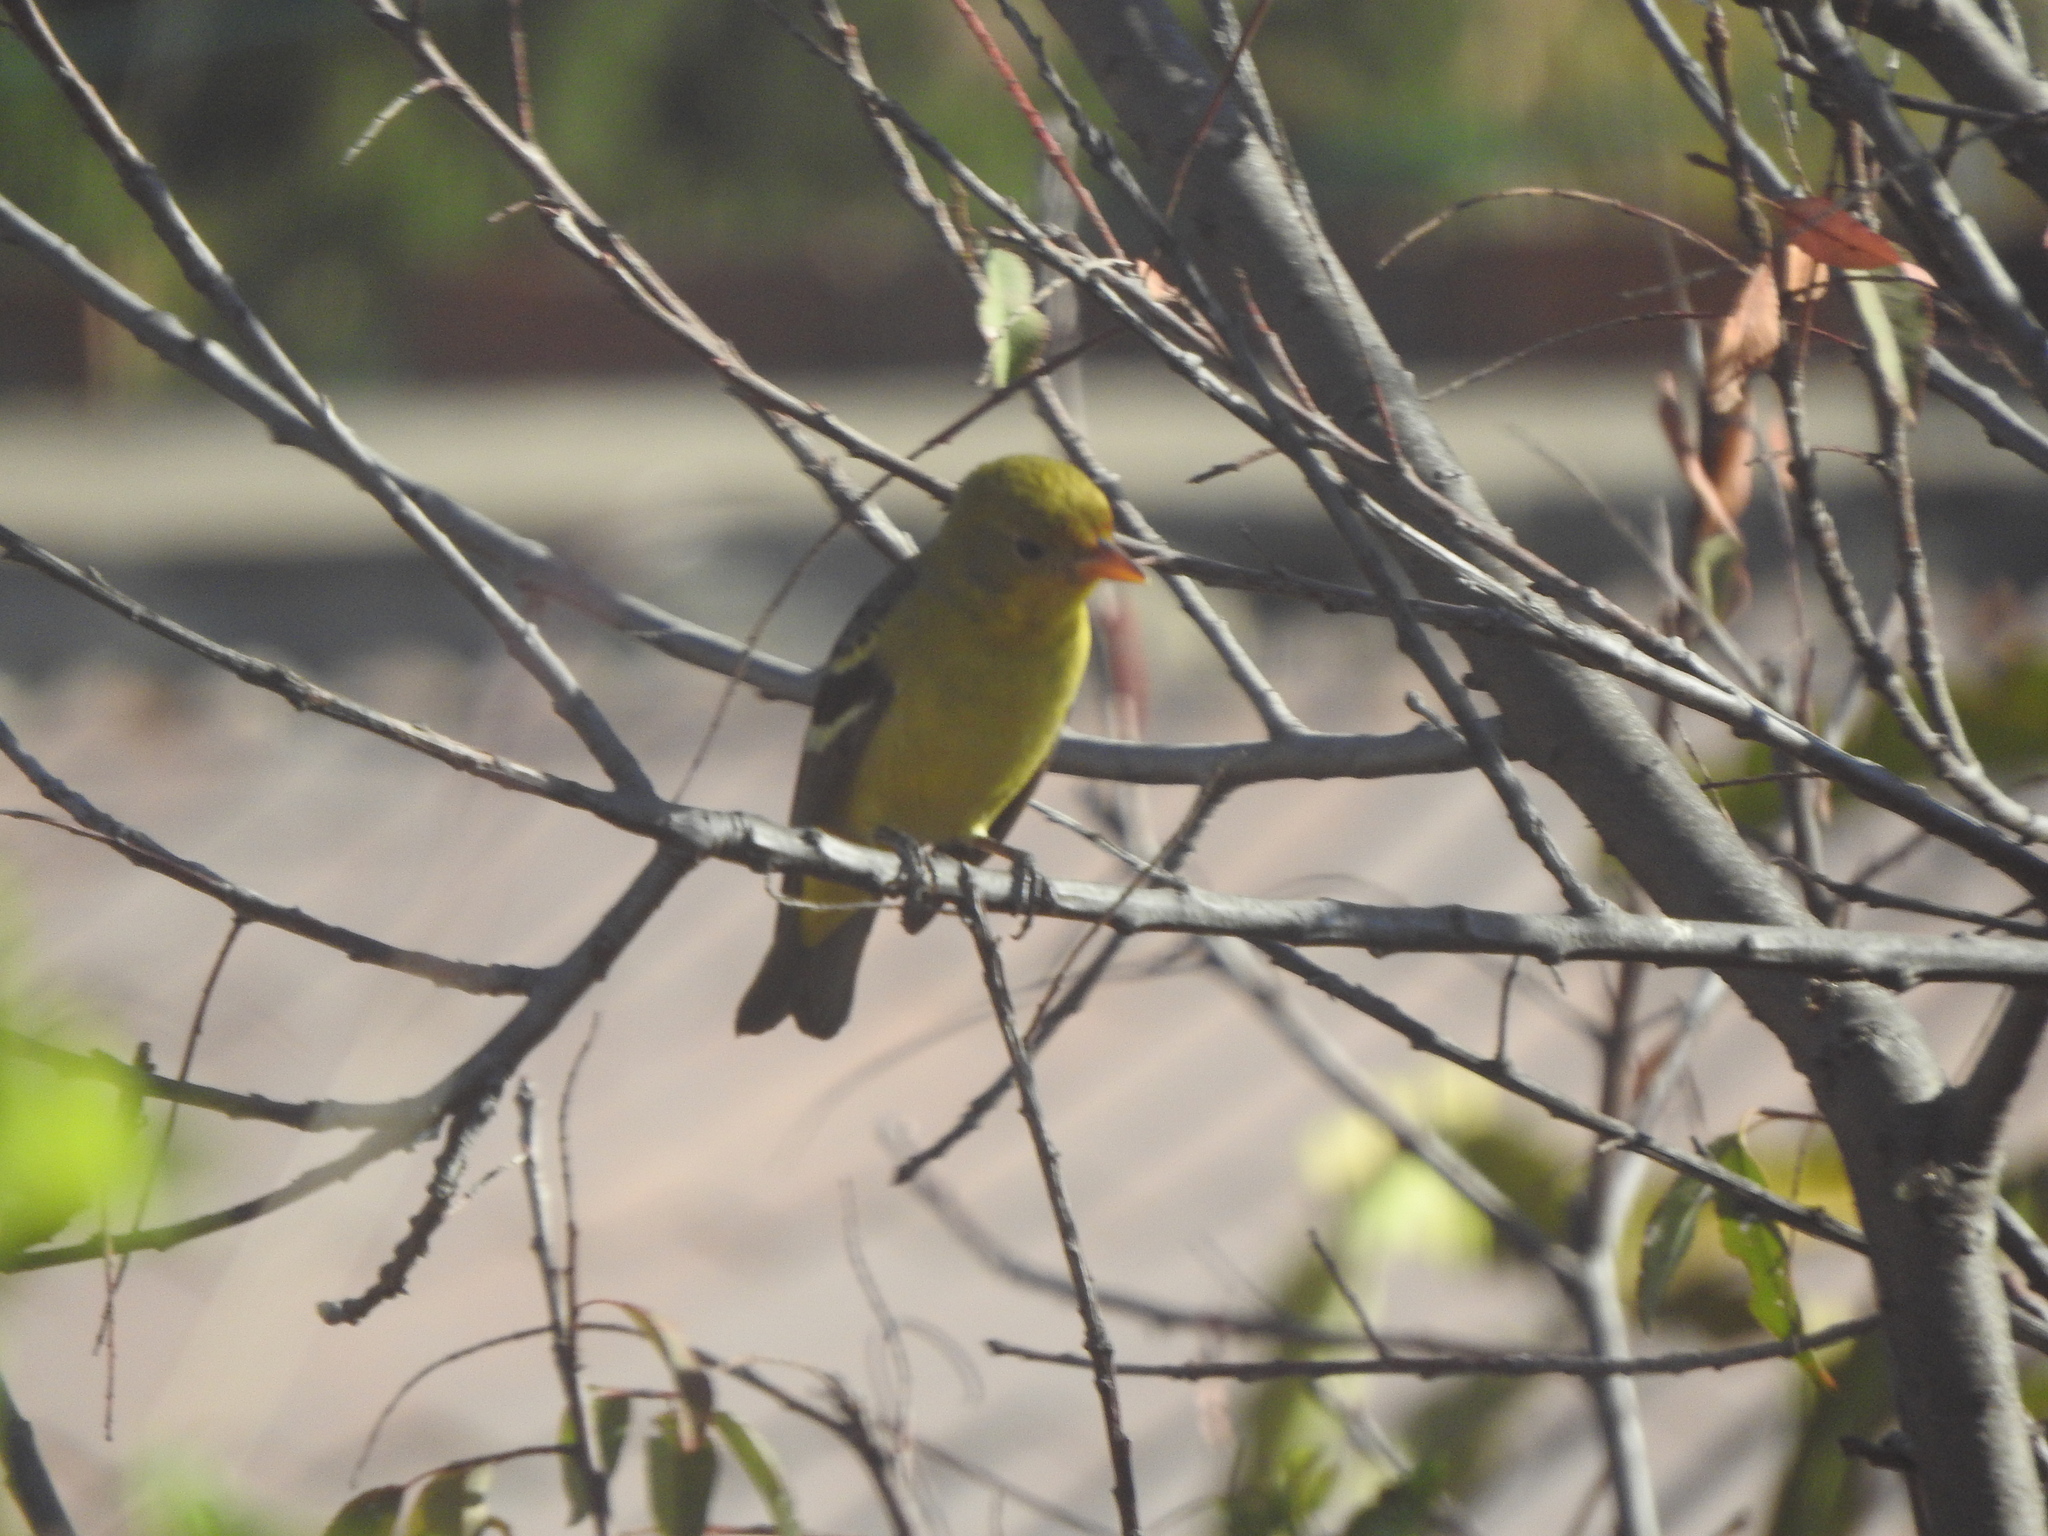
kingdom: Animalia
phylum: Chordata
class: Aves
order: Passeriformes
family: Cardinalidae
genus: Piranga
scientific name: Piranga ludoviciana
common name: Western tanager
